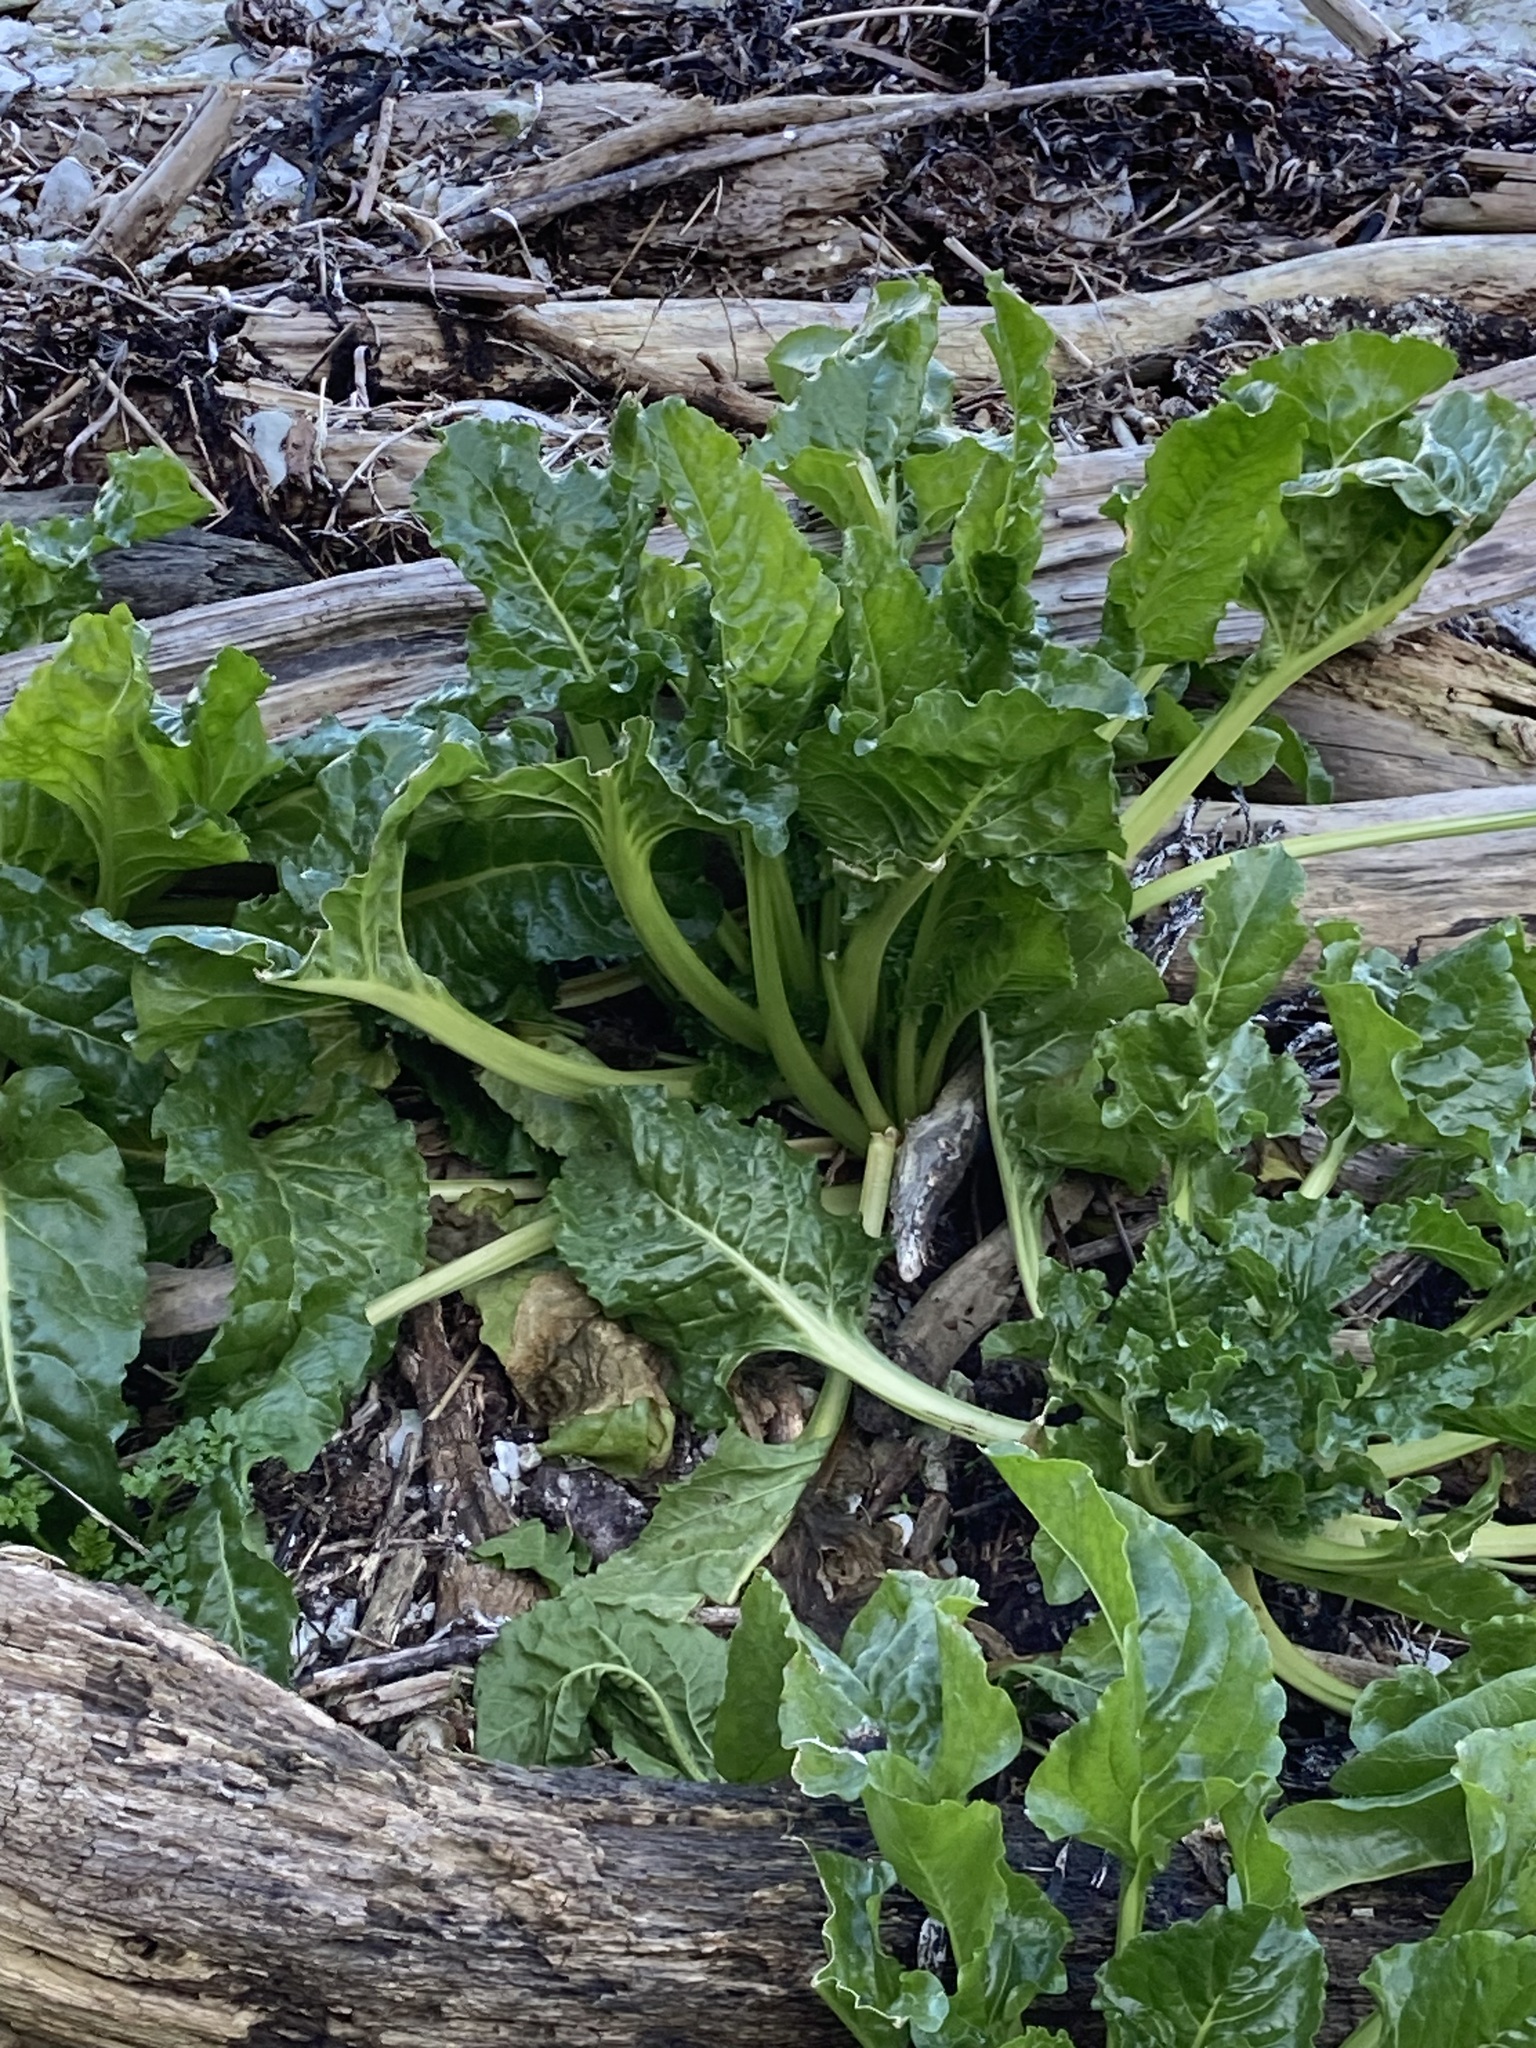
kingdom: Plantae
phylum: Tracheophyta
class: Magnoliopsida
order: Caryophyllales
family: Amaranthaceae
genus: Beta
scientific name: Beta vulgaris
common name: Beet
